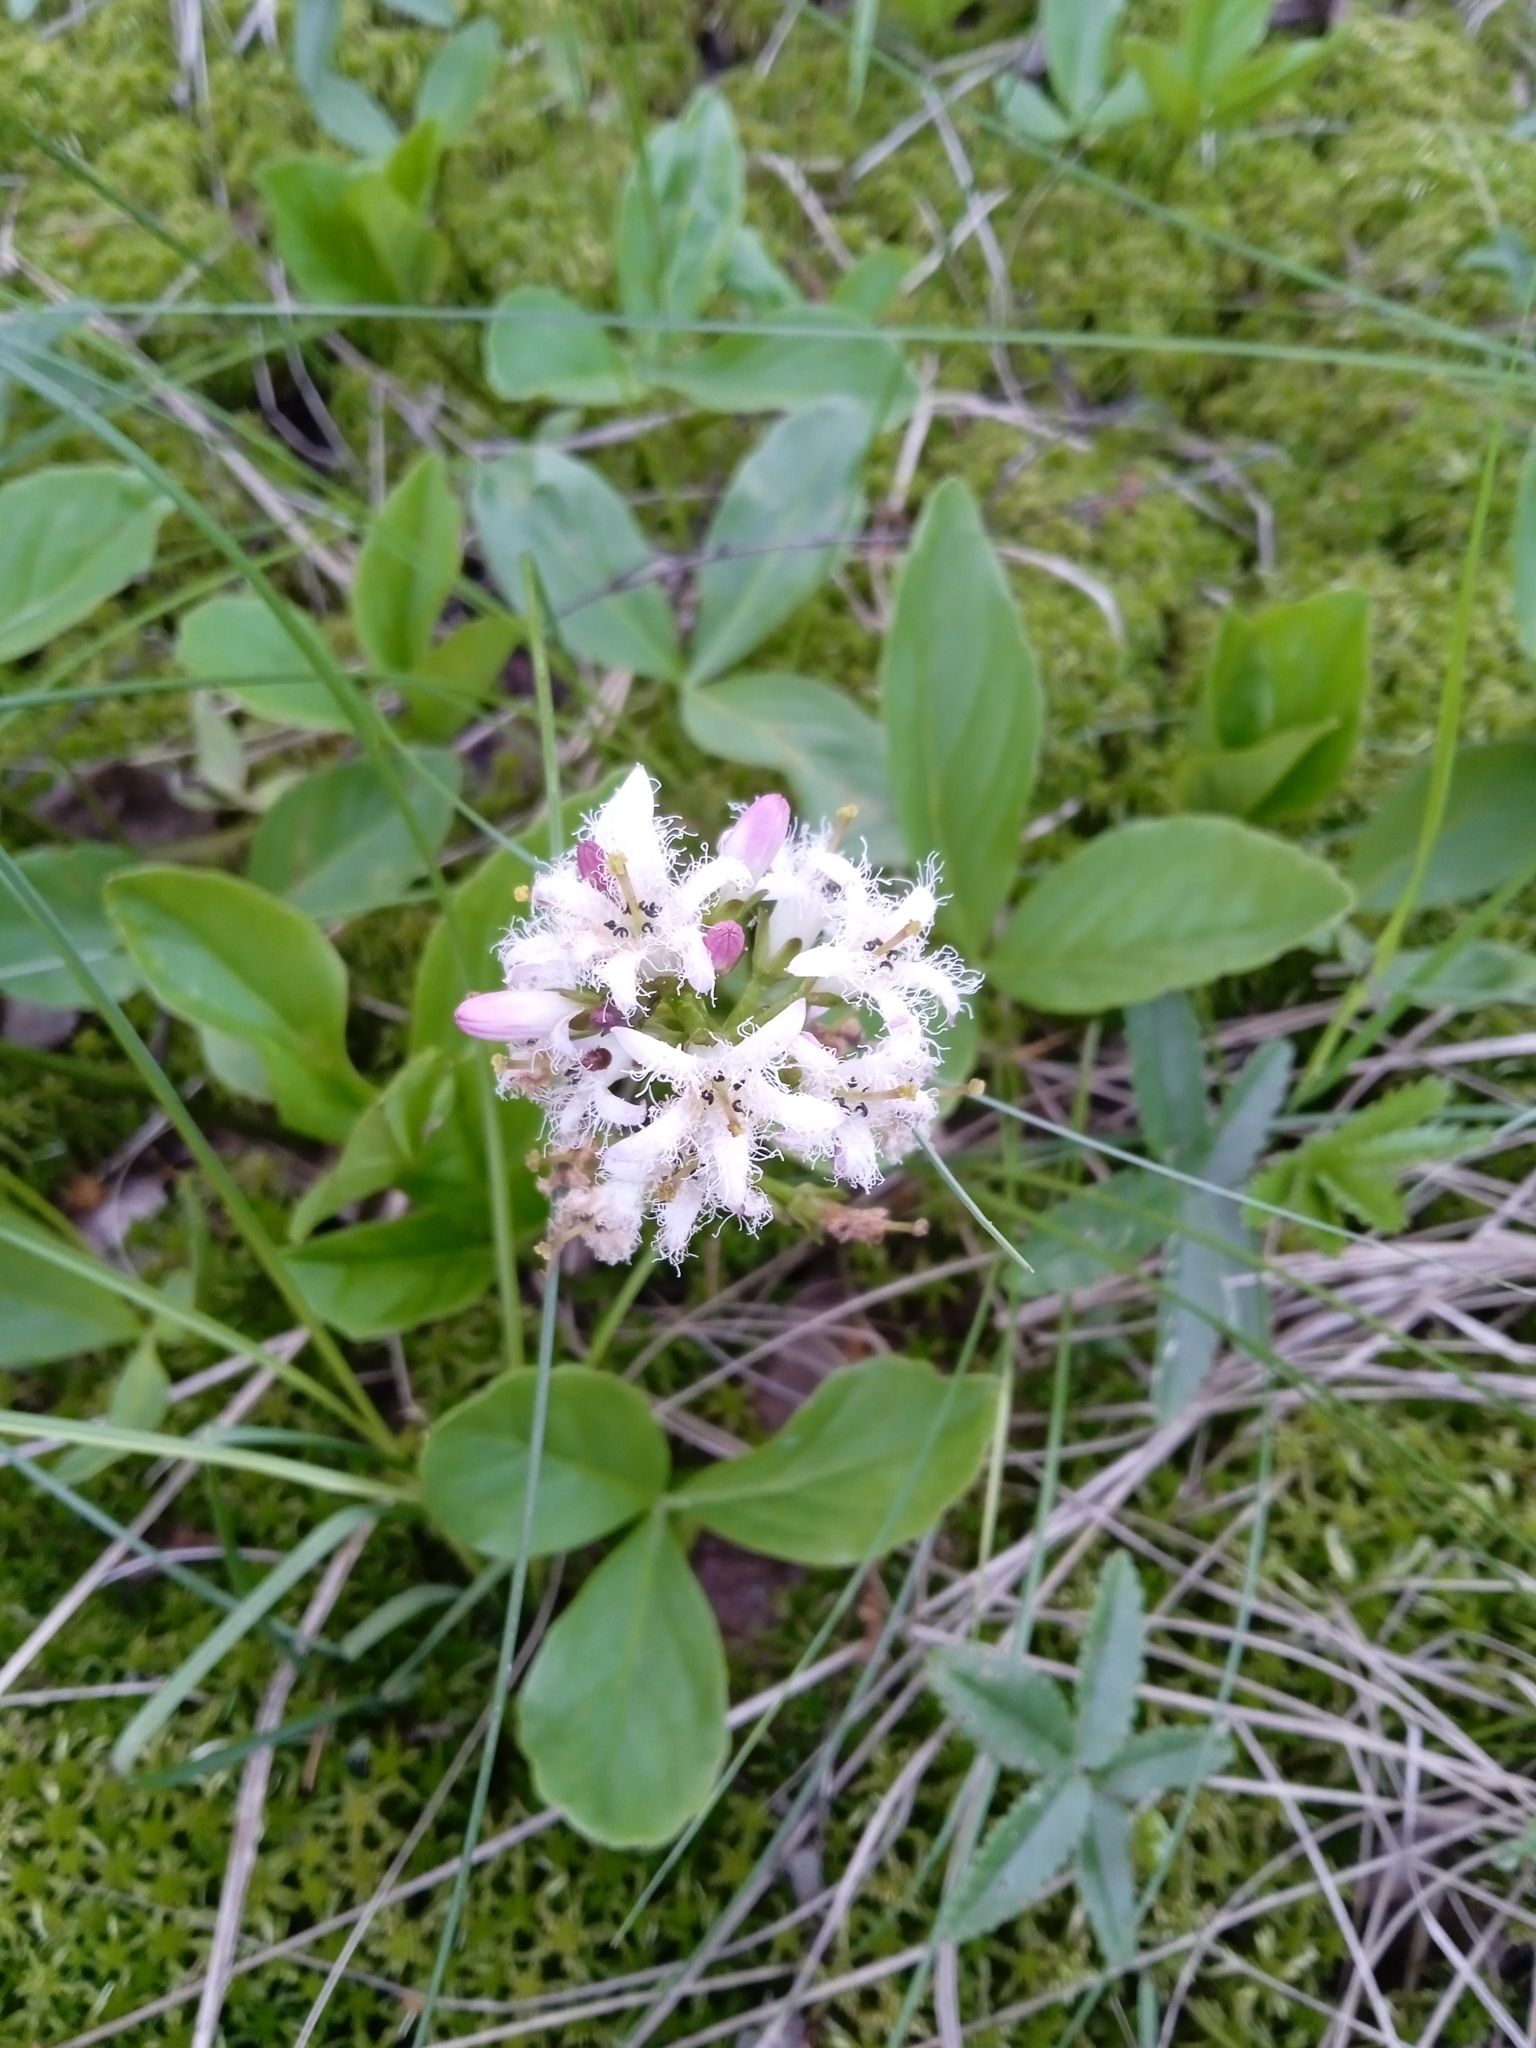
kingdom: Plantae
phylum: Tracheophyta
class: Magnoliopsida
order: Asterales
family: Menyanthaceae
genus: Menyanthes
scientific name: Menyanthes trifoliata
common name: Bogbean
